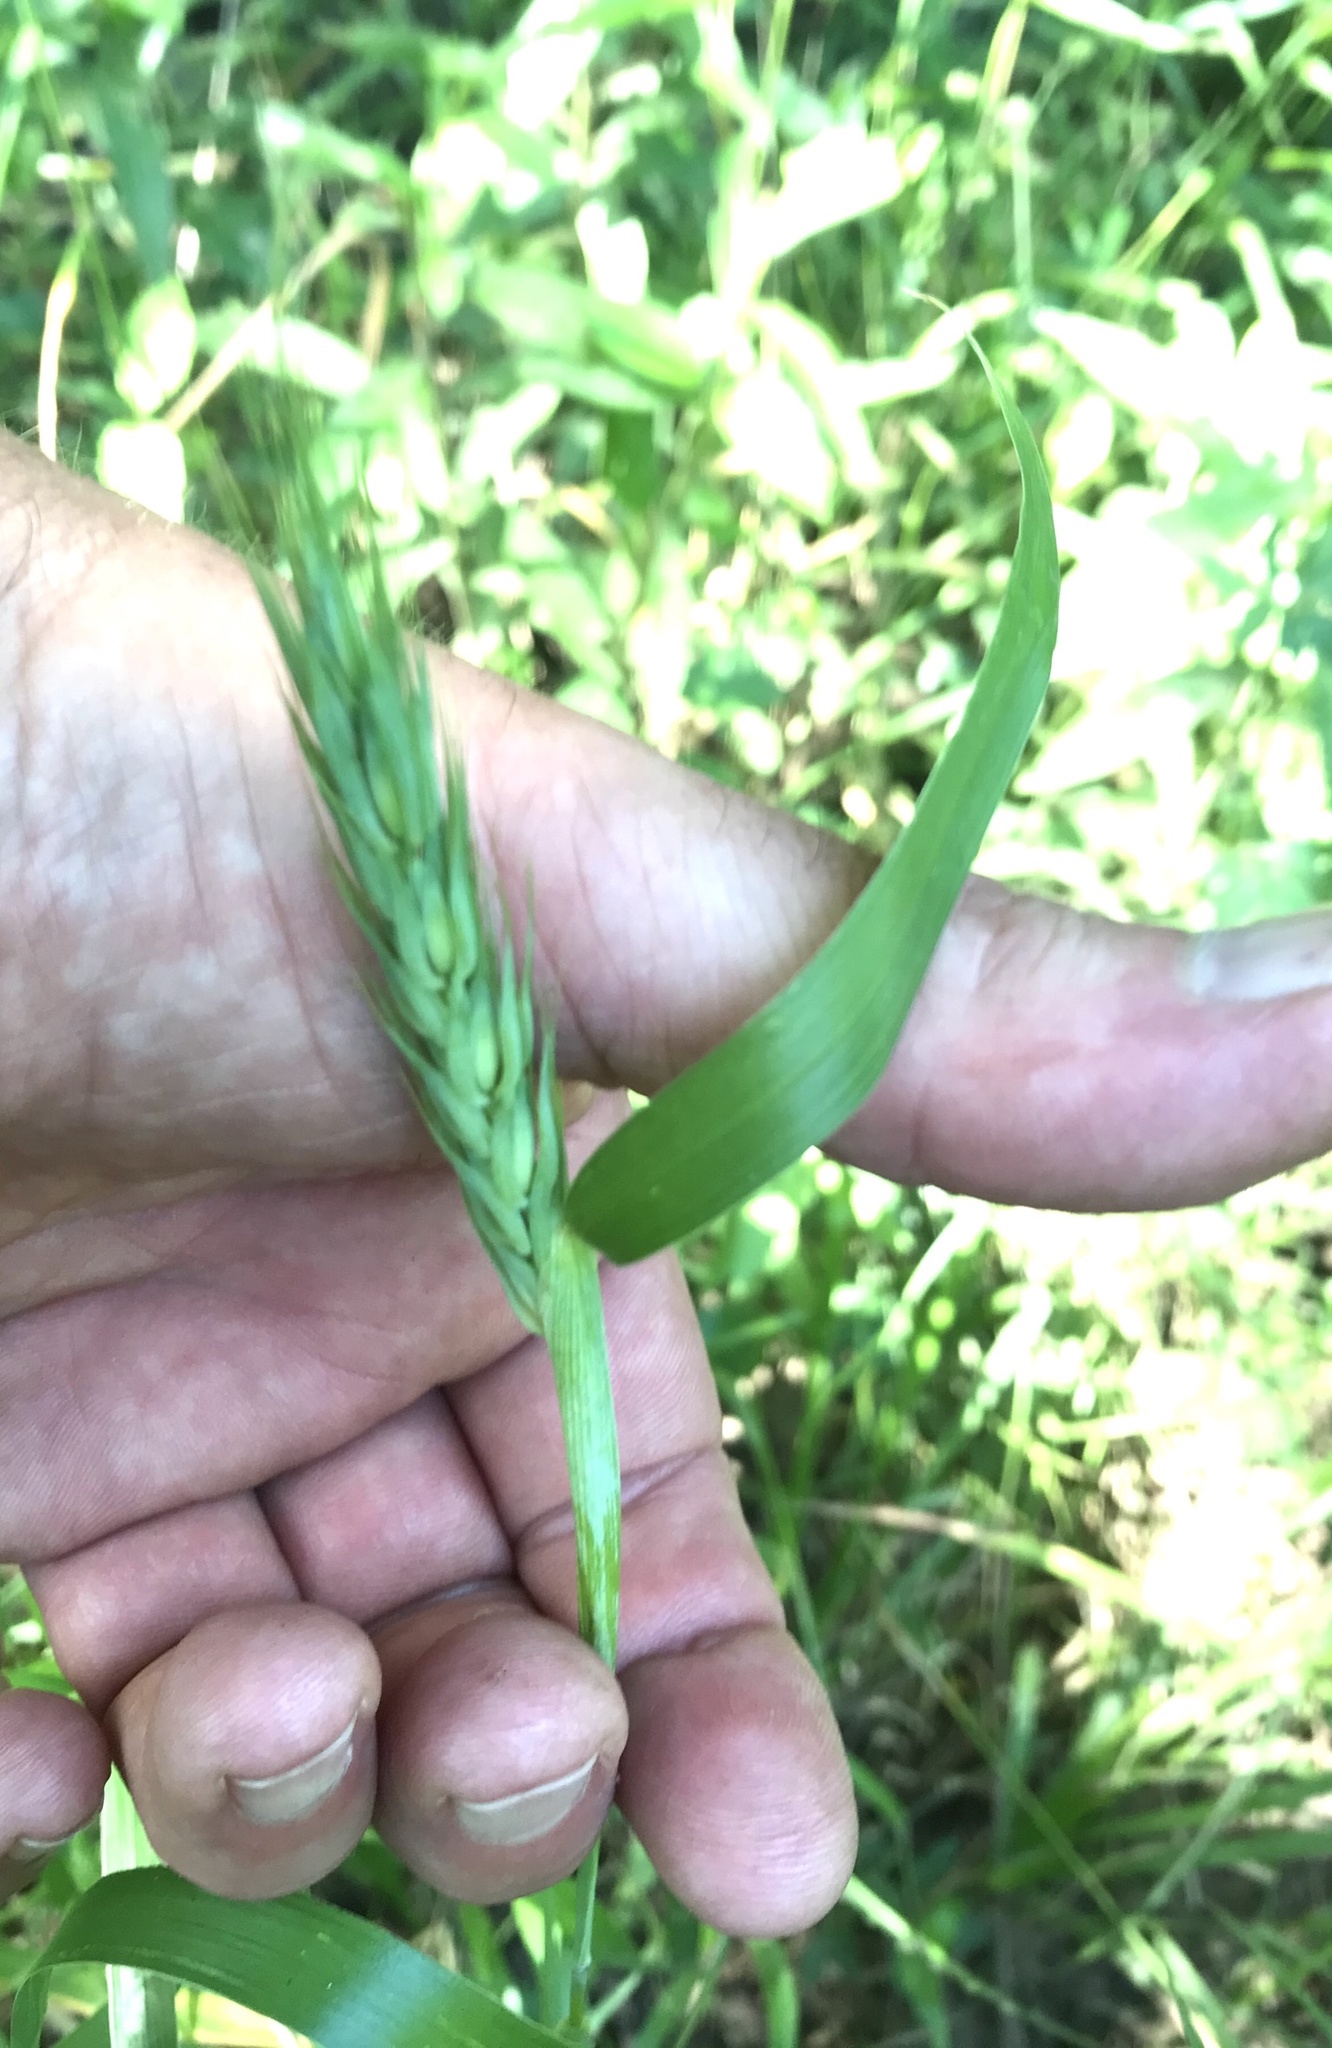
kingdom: Plantae
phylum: Tracheophyta
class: Liliopsida
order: Poales
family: Poaceae
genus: Elymus
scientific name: Elymus virginicus
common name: Common eastern wildrye
